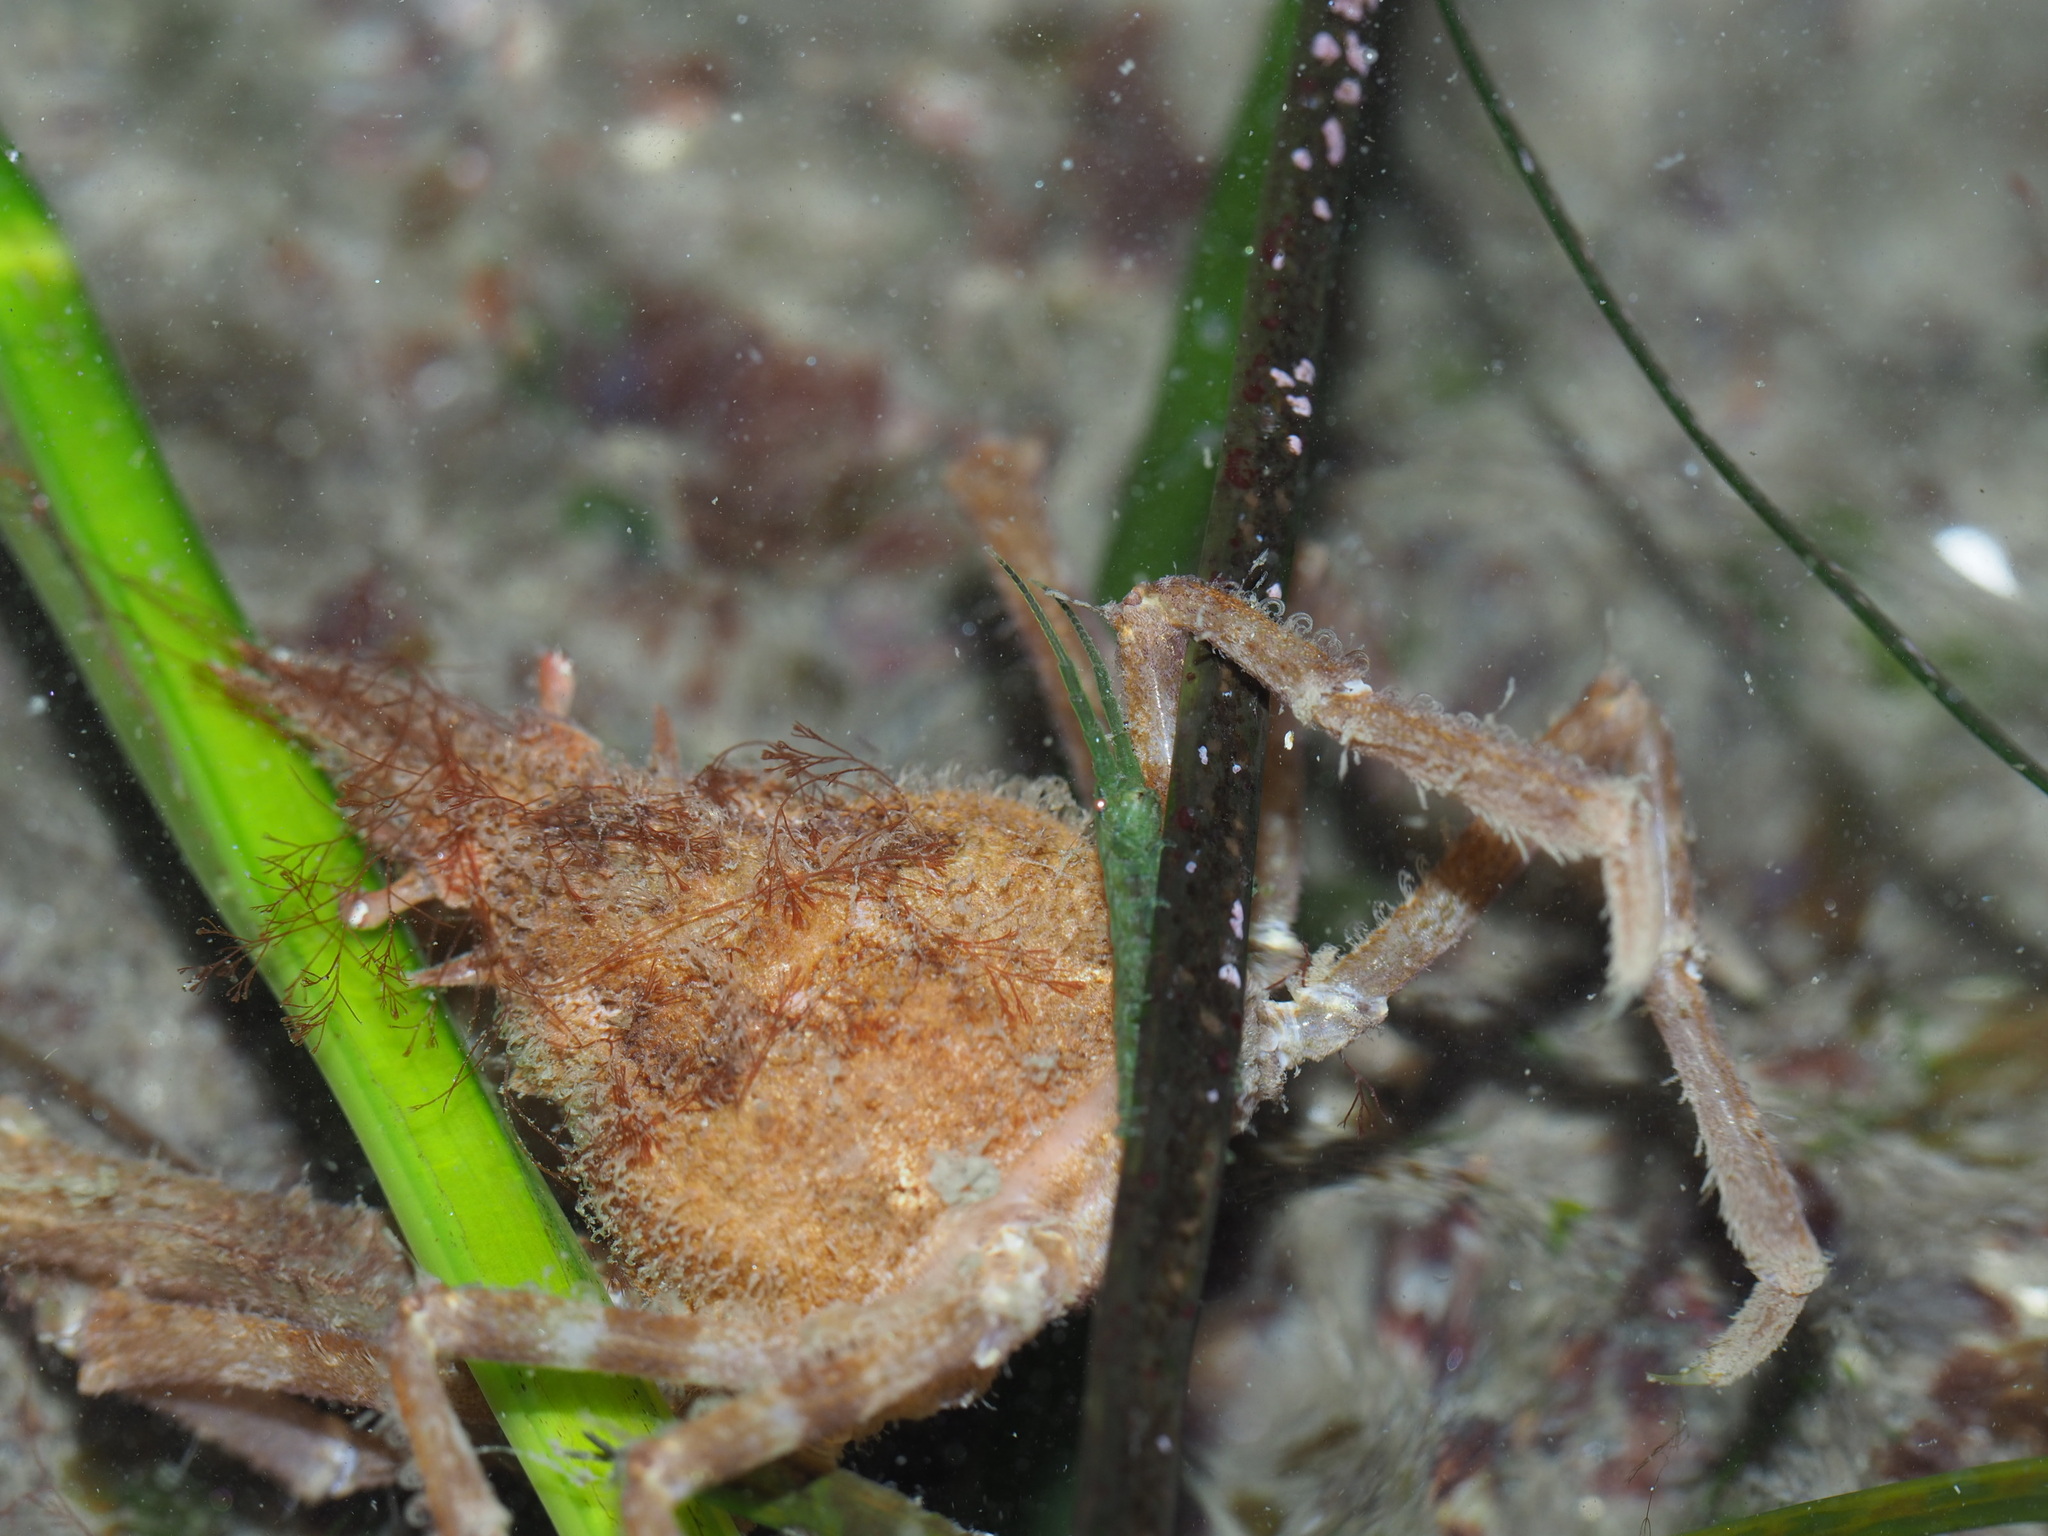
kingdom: Animalia
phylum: Arthropoda
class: Malacostraca
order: Decapoda
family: Epialtidae
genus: Chorilia
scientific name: Chorilia longipes
